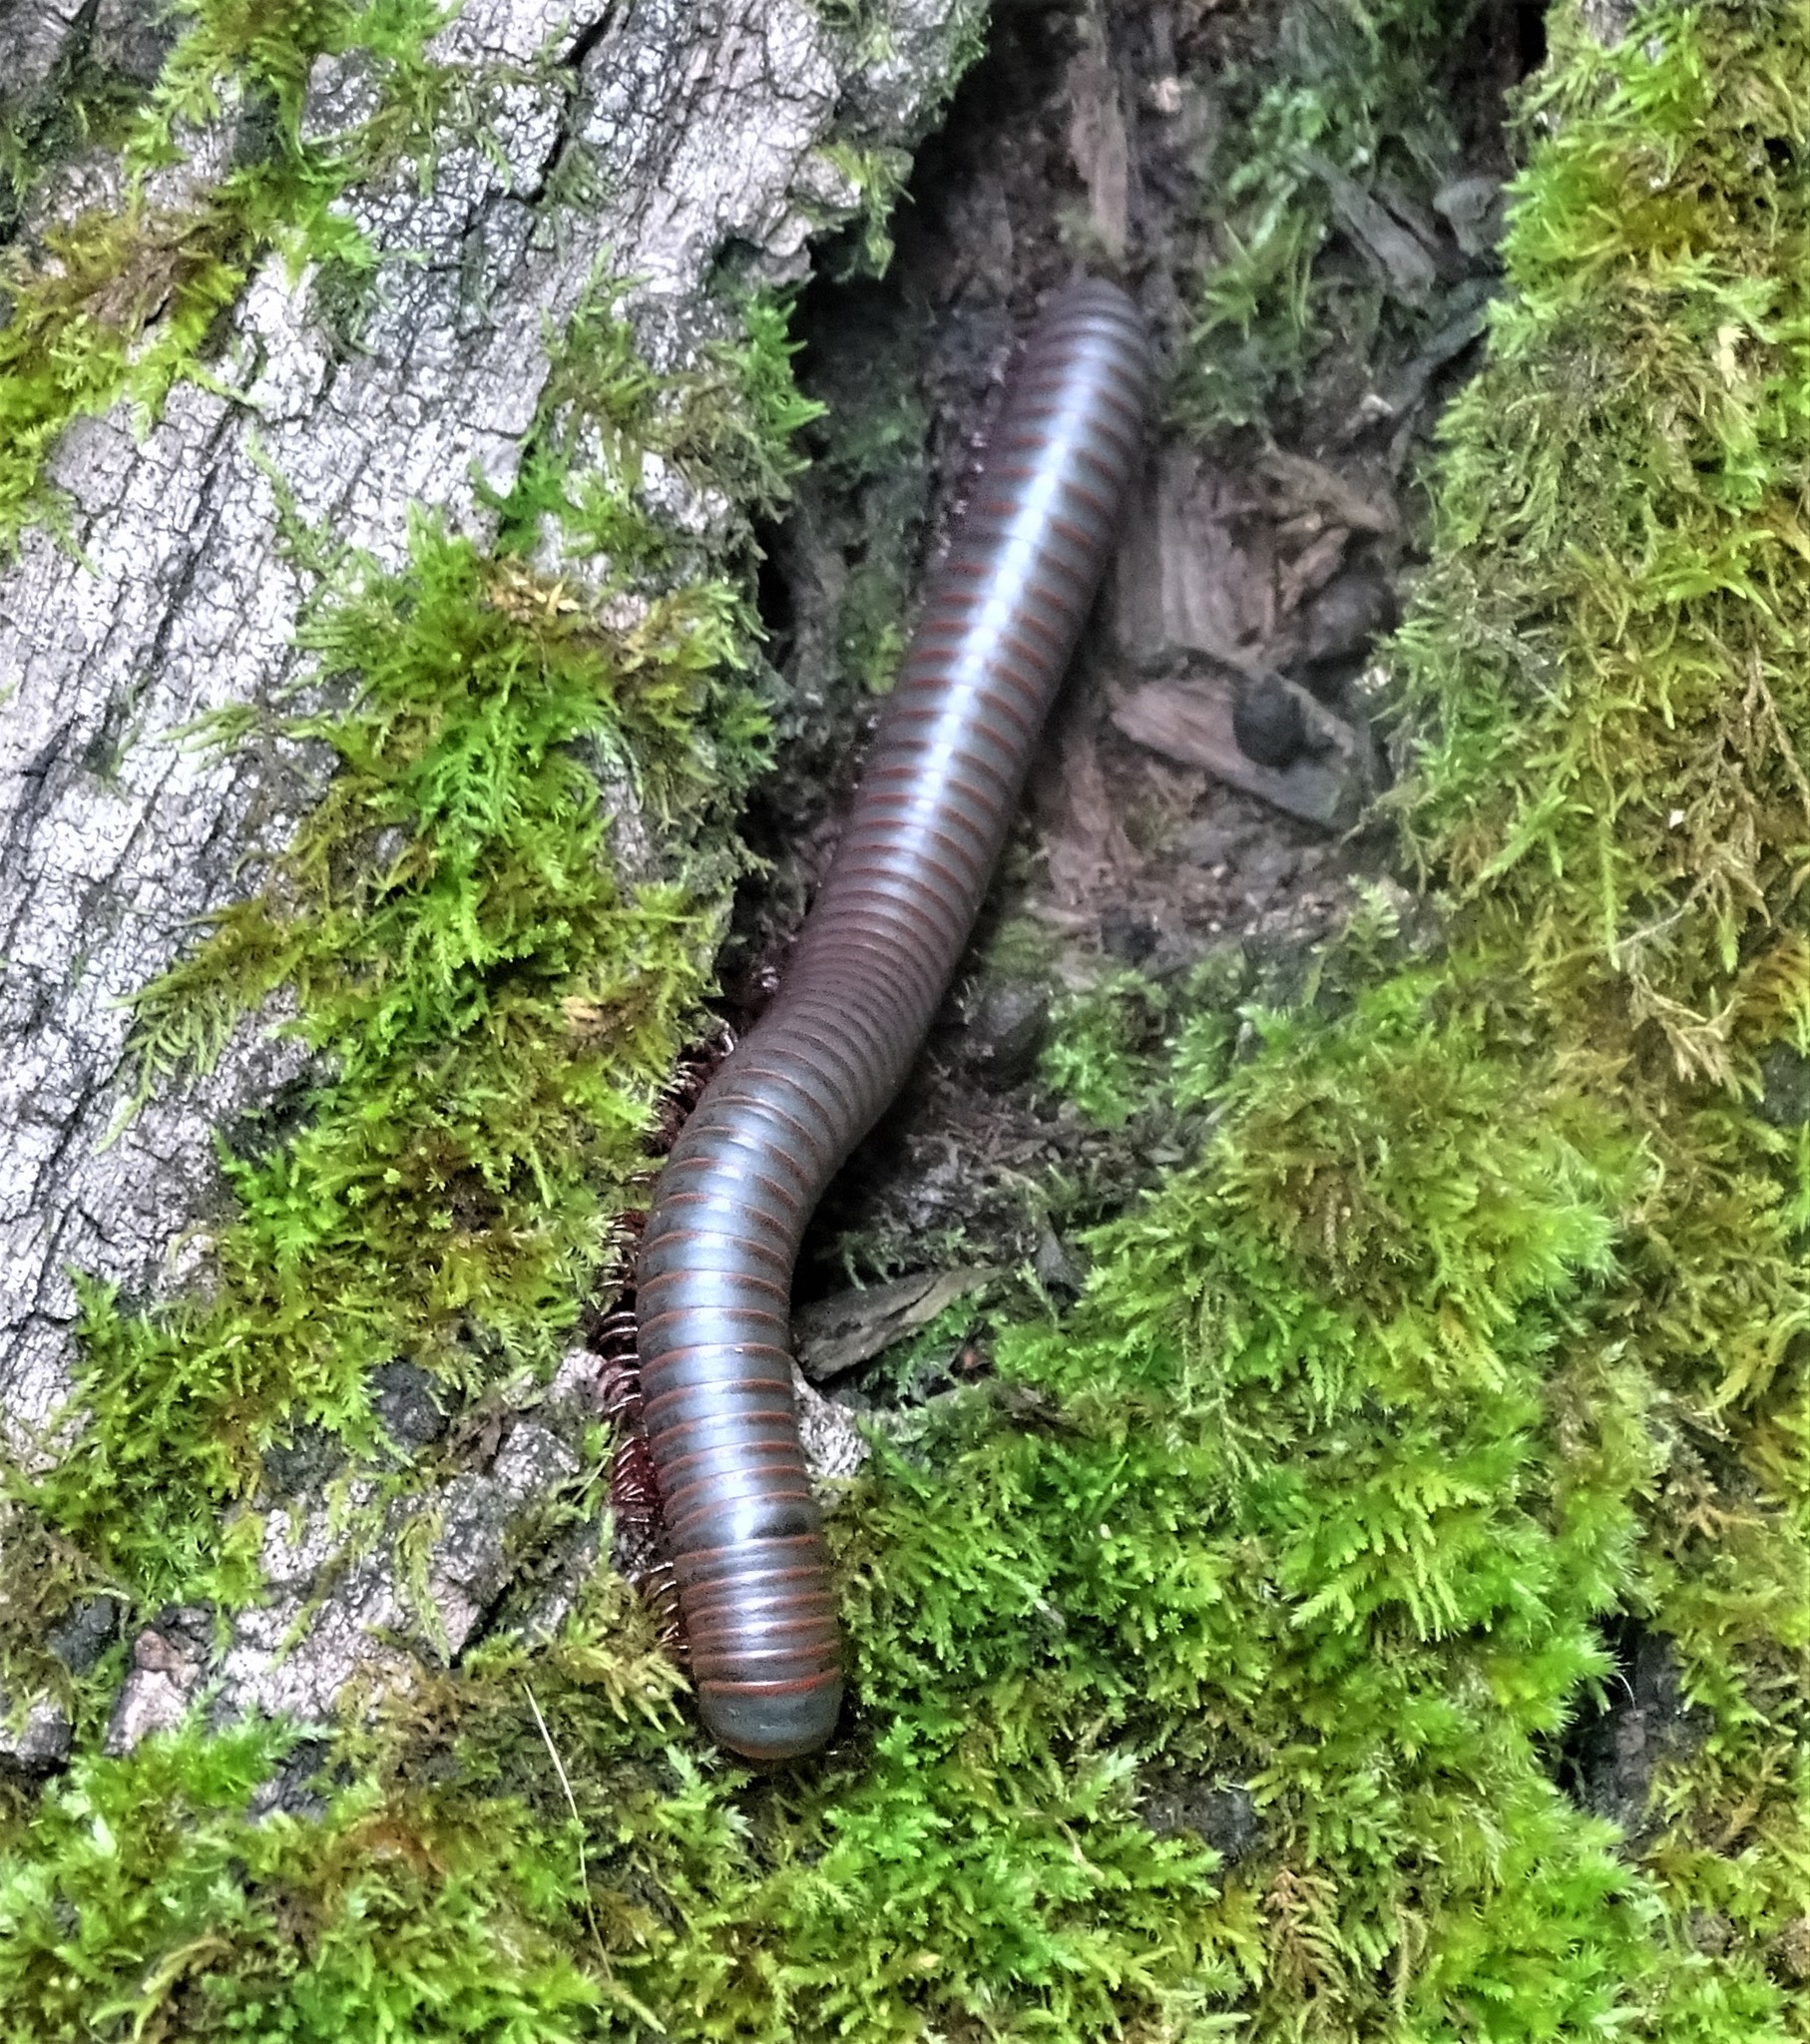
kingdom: Animalia
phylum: Arthropoda
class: Diplopoda
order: Spirobolida
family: Spirobolidae
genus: Narceus
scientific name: Narceus
